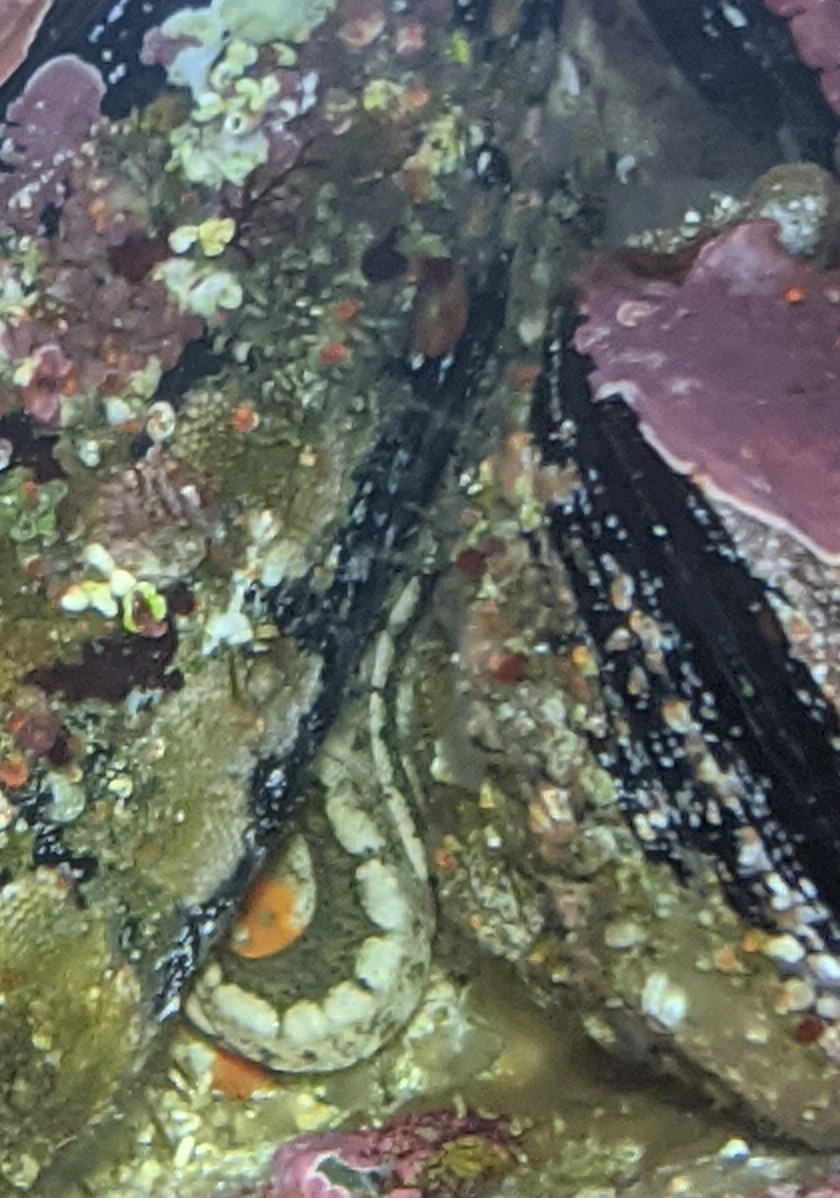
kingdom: Animalia
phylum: Chordata
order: Perciformes
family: Stichaeidae
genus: Anoplarchus
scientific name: Anoplarchus purpurescens
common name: High cockscomb
